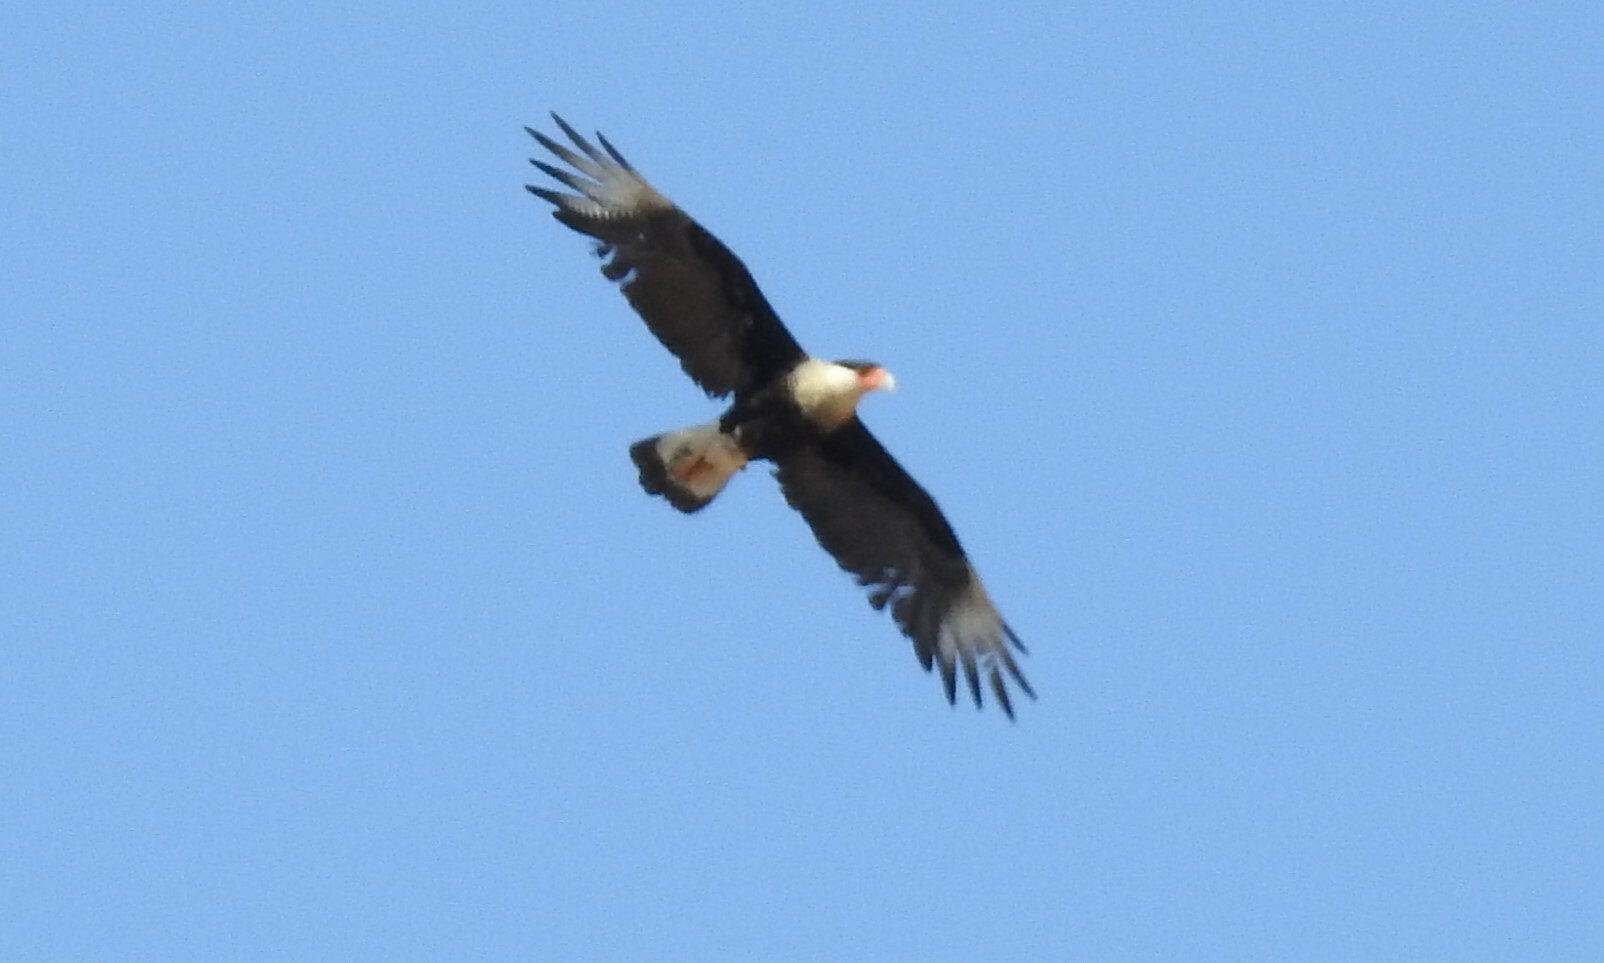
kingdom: Animalia
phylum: Chordata
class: Aves
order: Falconiformes
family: Falconidae
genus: Caracara
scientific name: Caracara plancus
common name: Southern caracara
